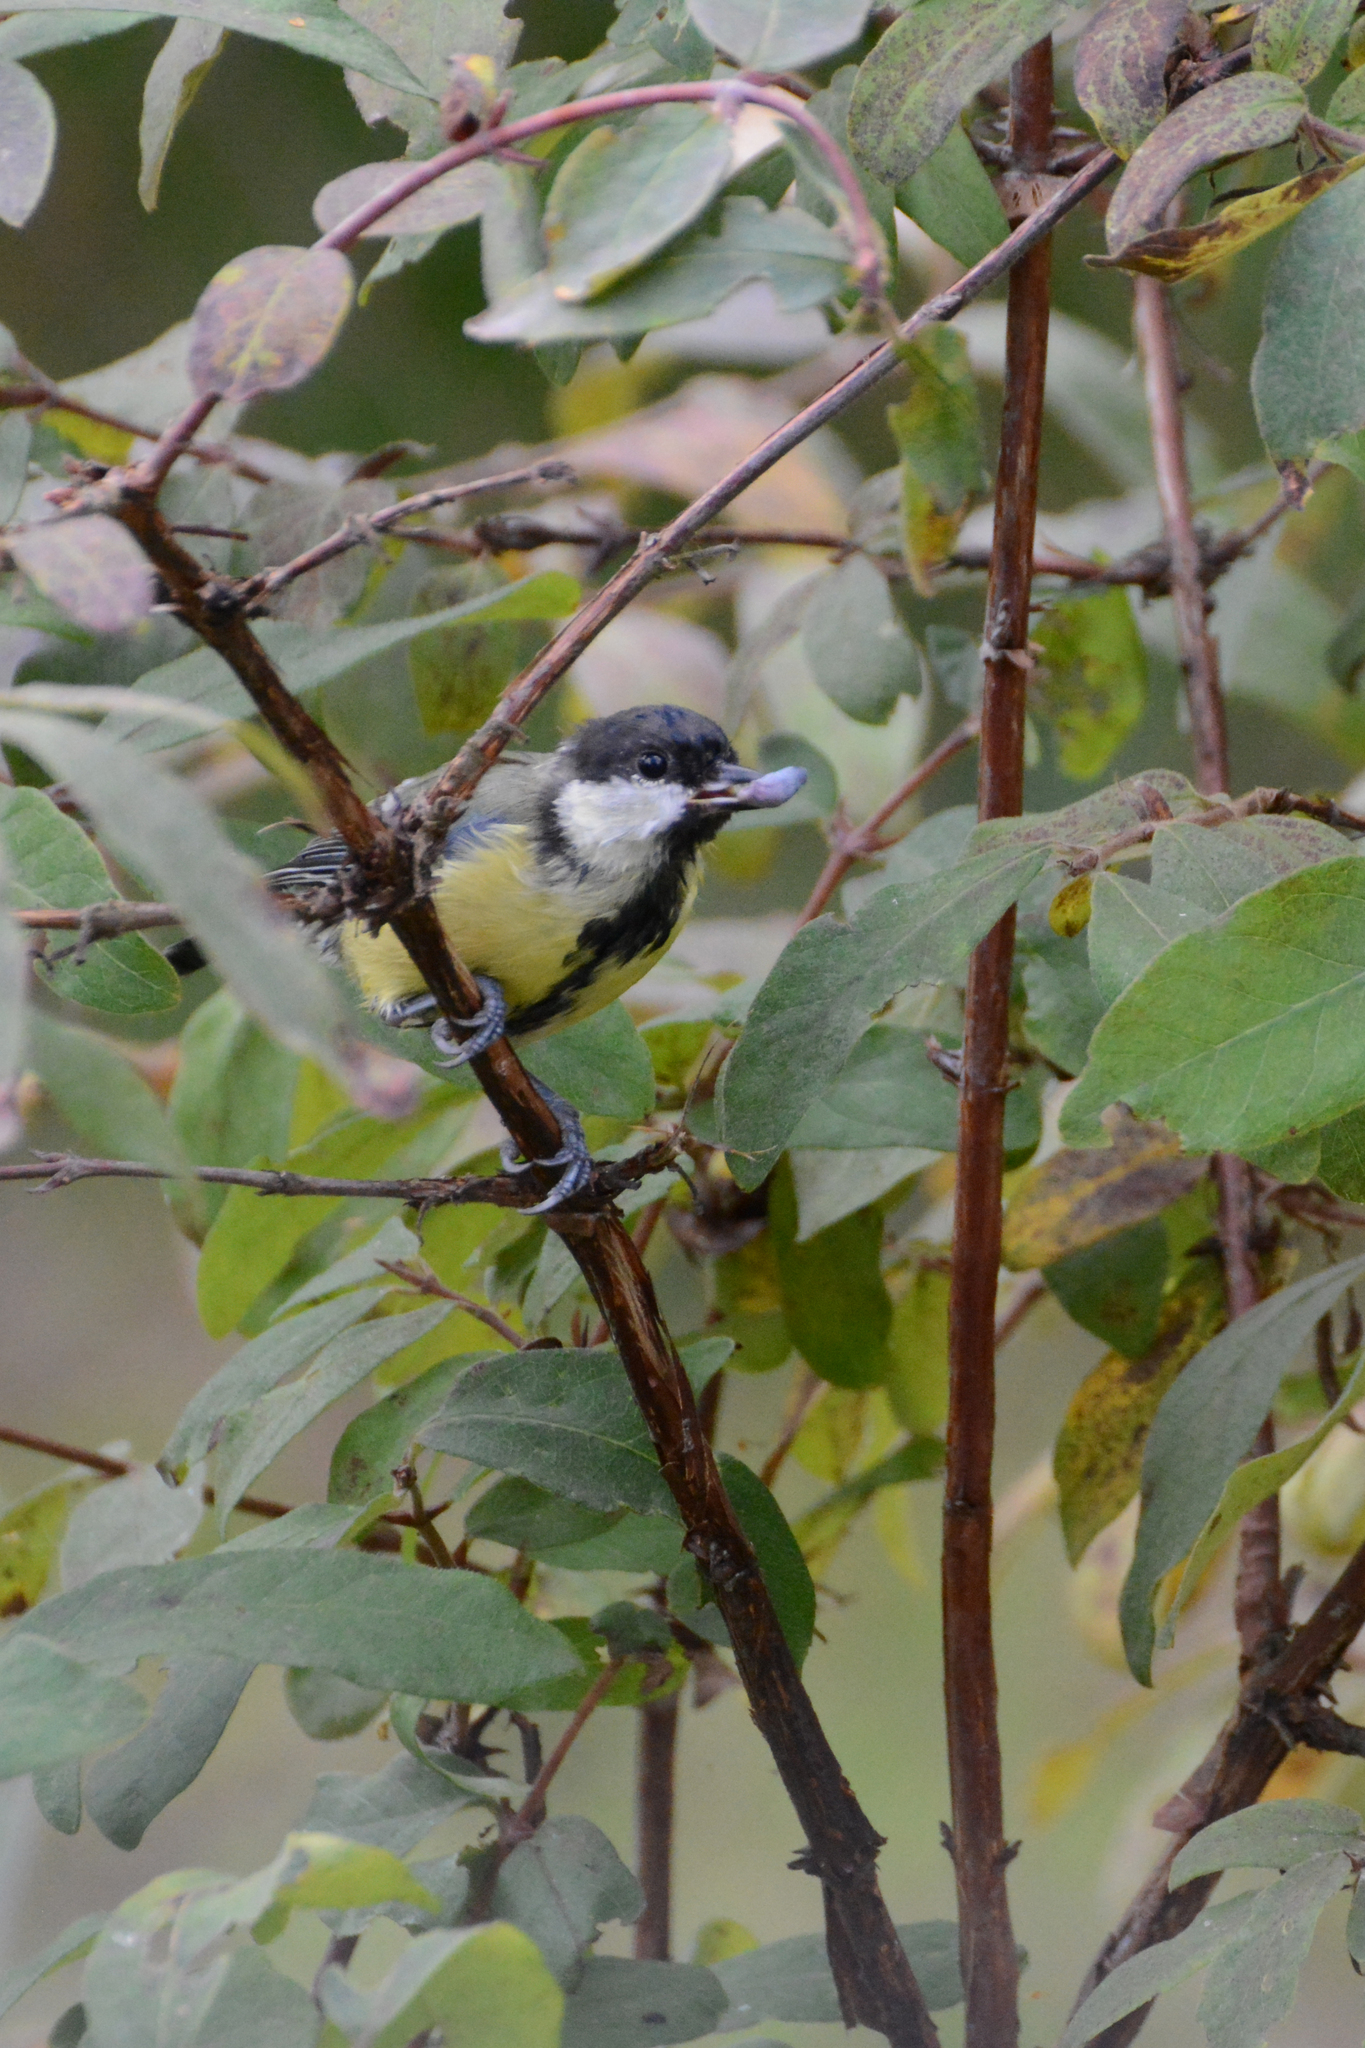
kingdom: Animalia
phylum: Chordata
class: Aves
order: Passeriformes
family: Paridae
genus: Parus
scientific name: Parus major
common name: Great tit
